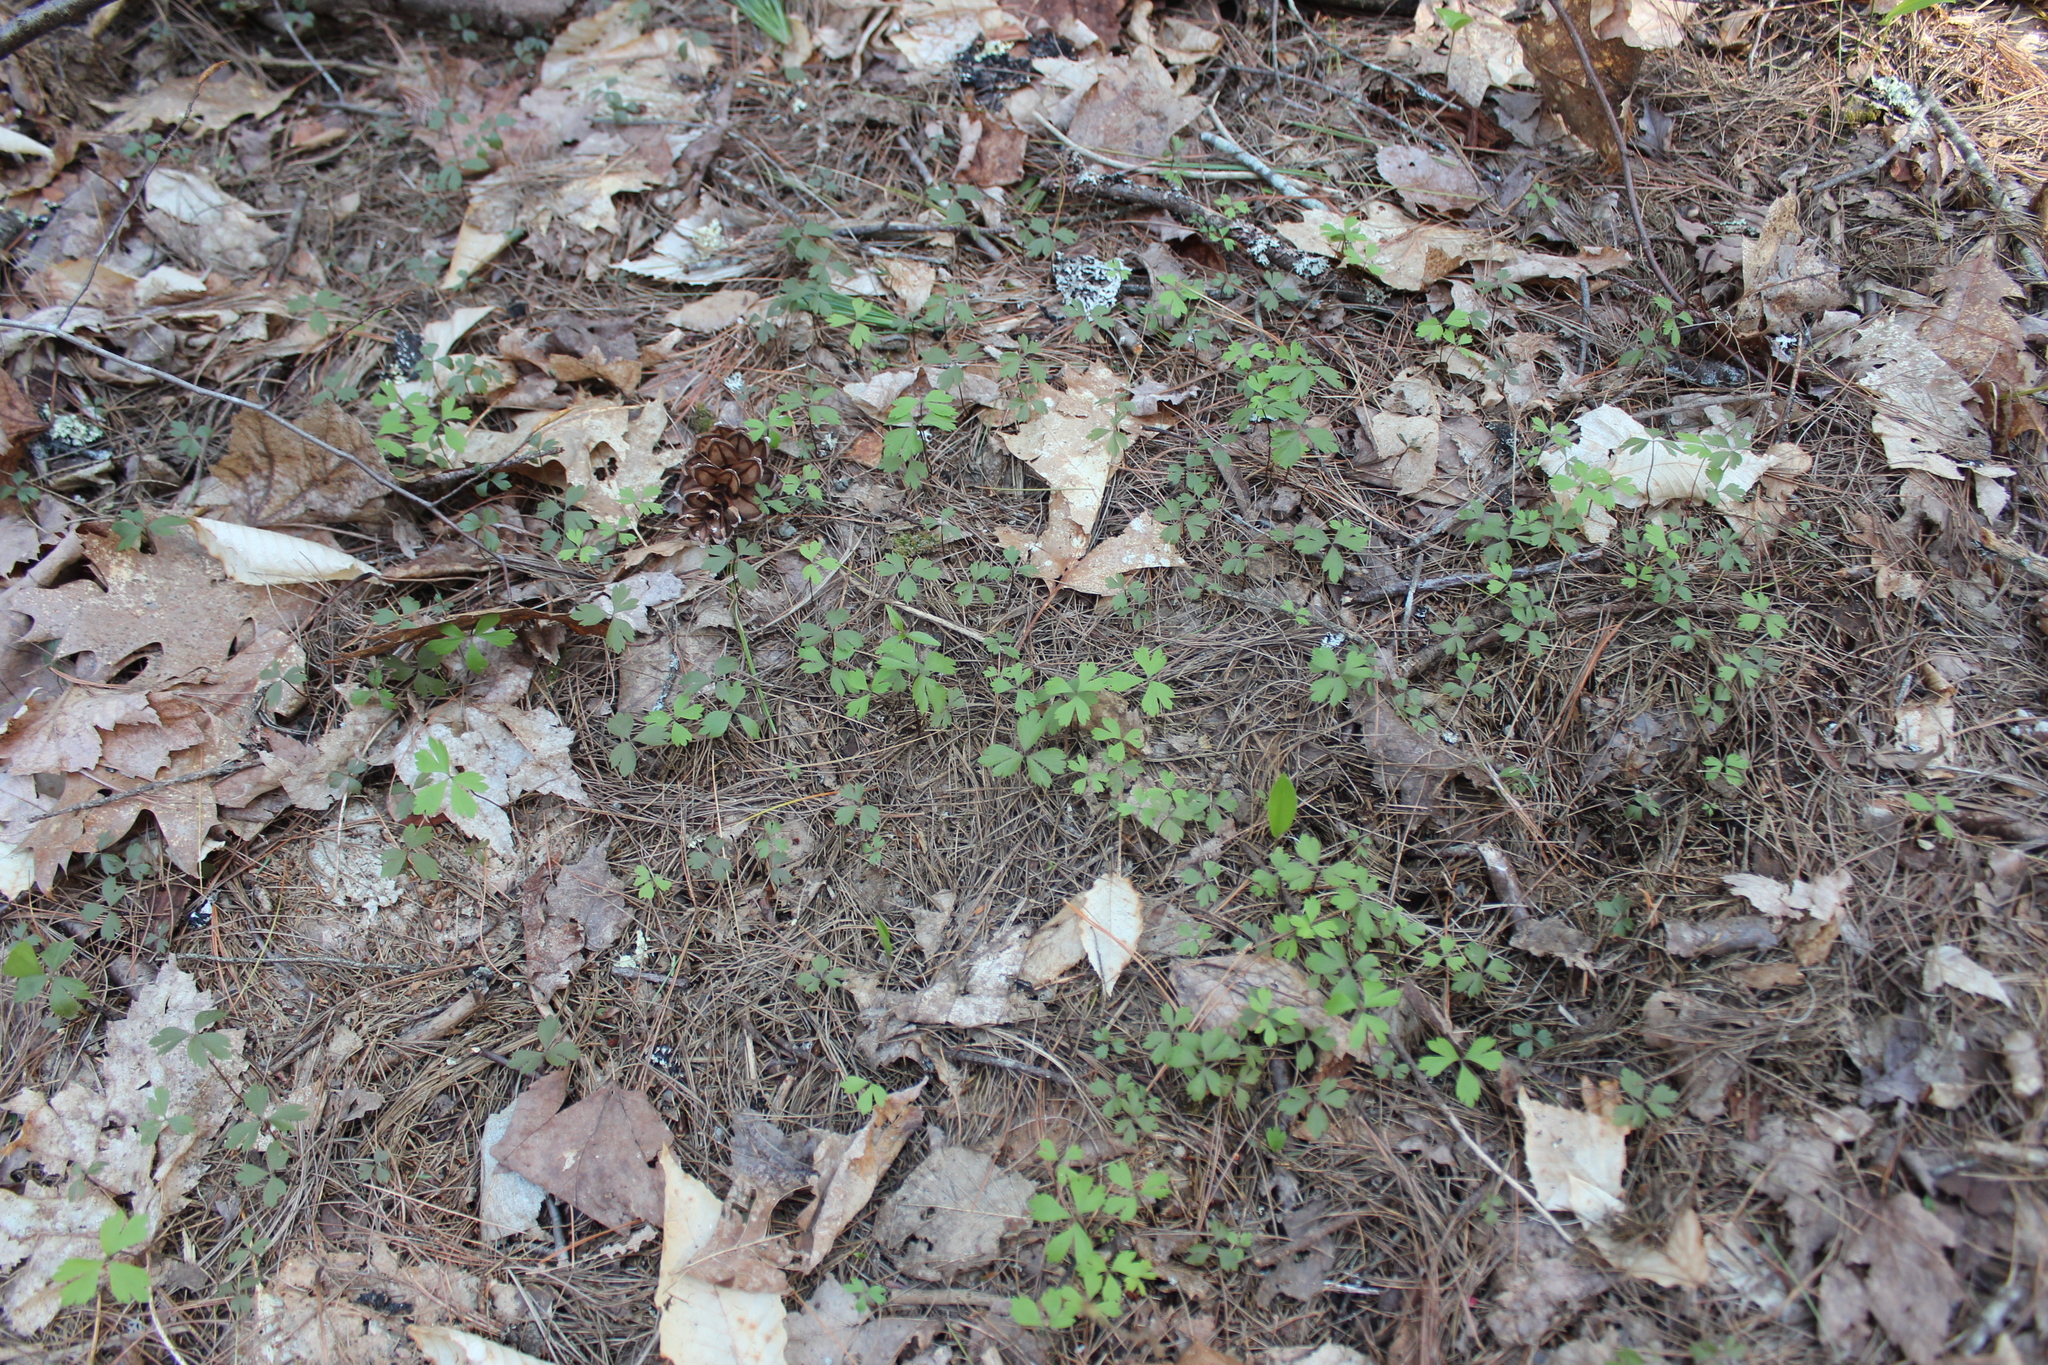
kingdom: Plantae
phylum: Tracheophyta
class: Magnoliopsida
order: Ranunculales
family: Ranunculaceae
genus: Anemone
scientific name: Anemone quinquefolia
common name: Wood anemone
